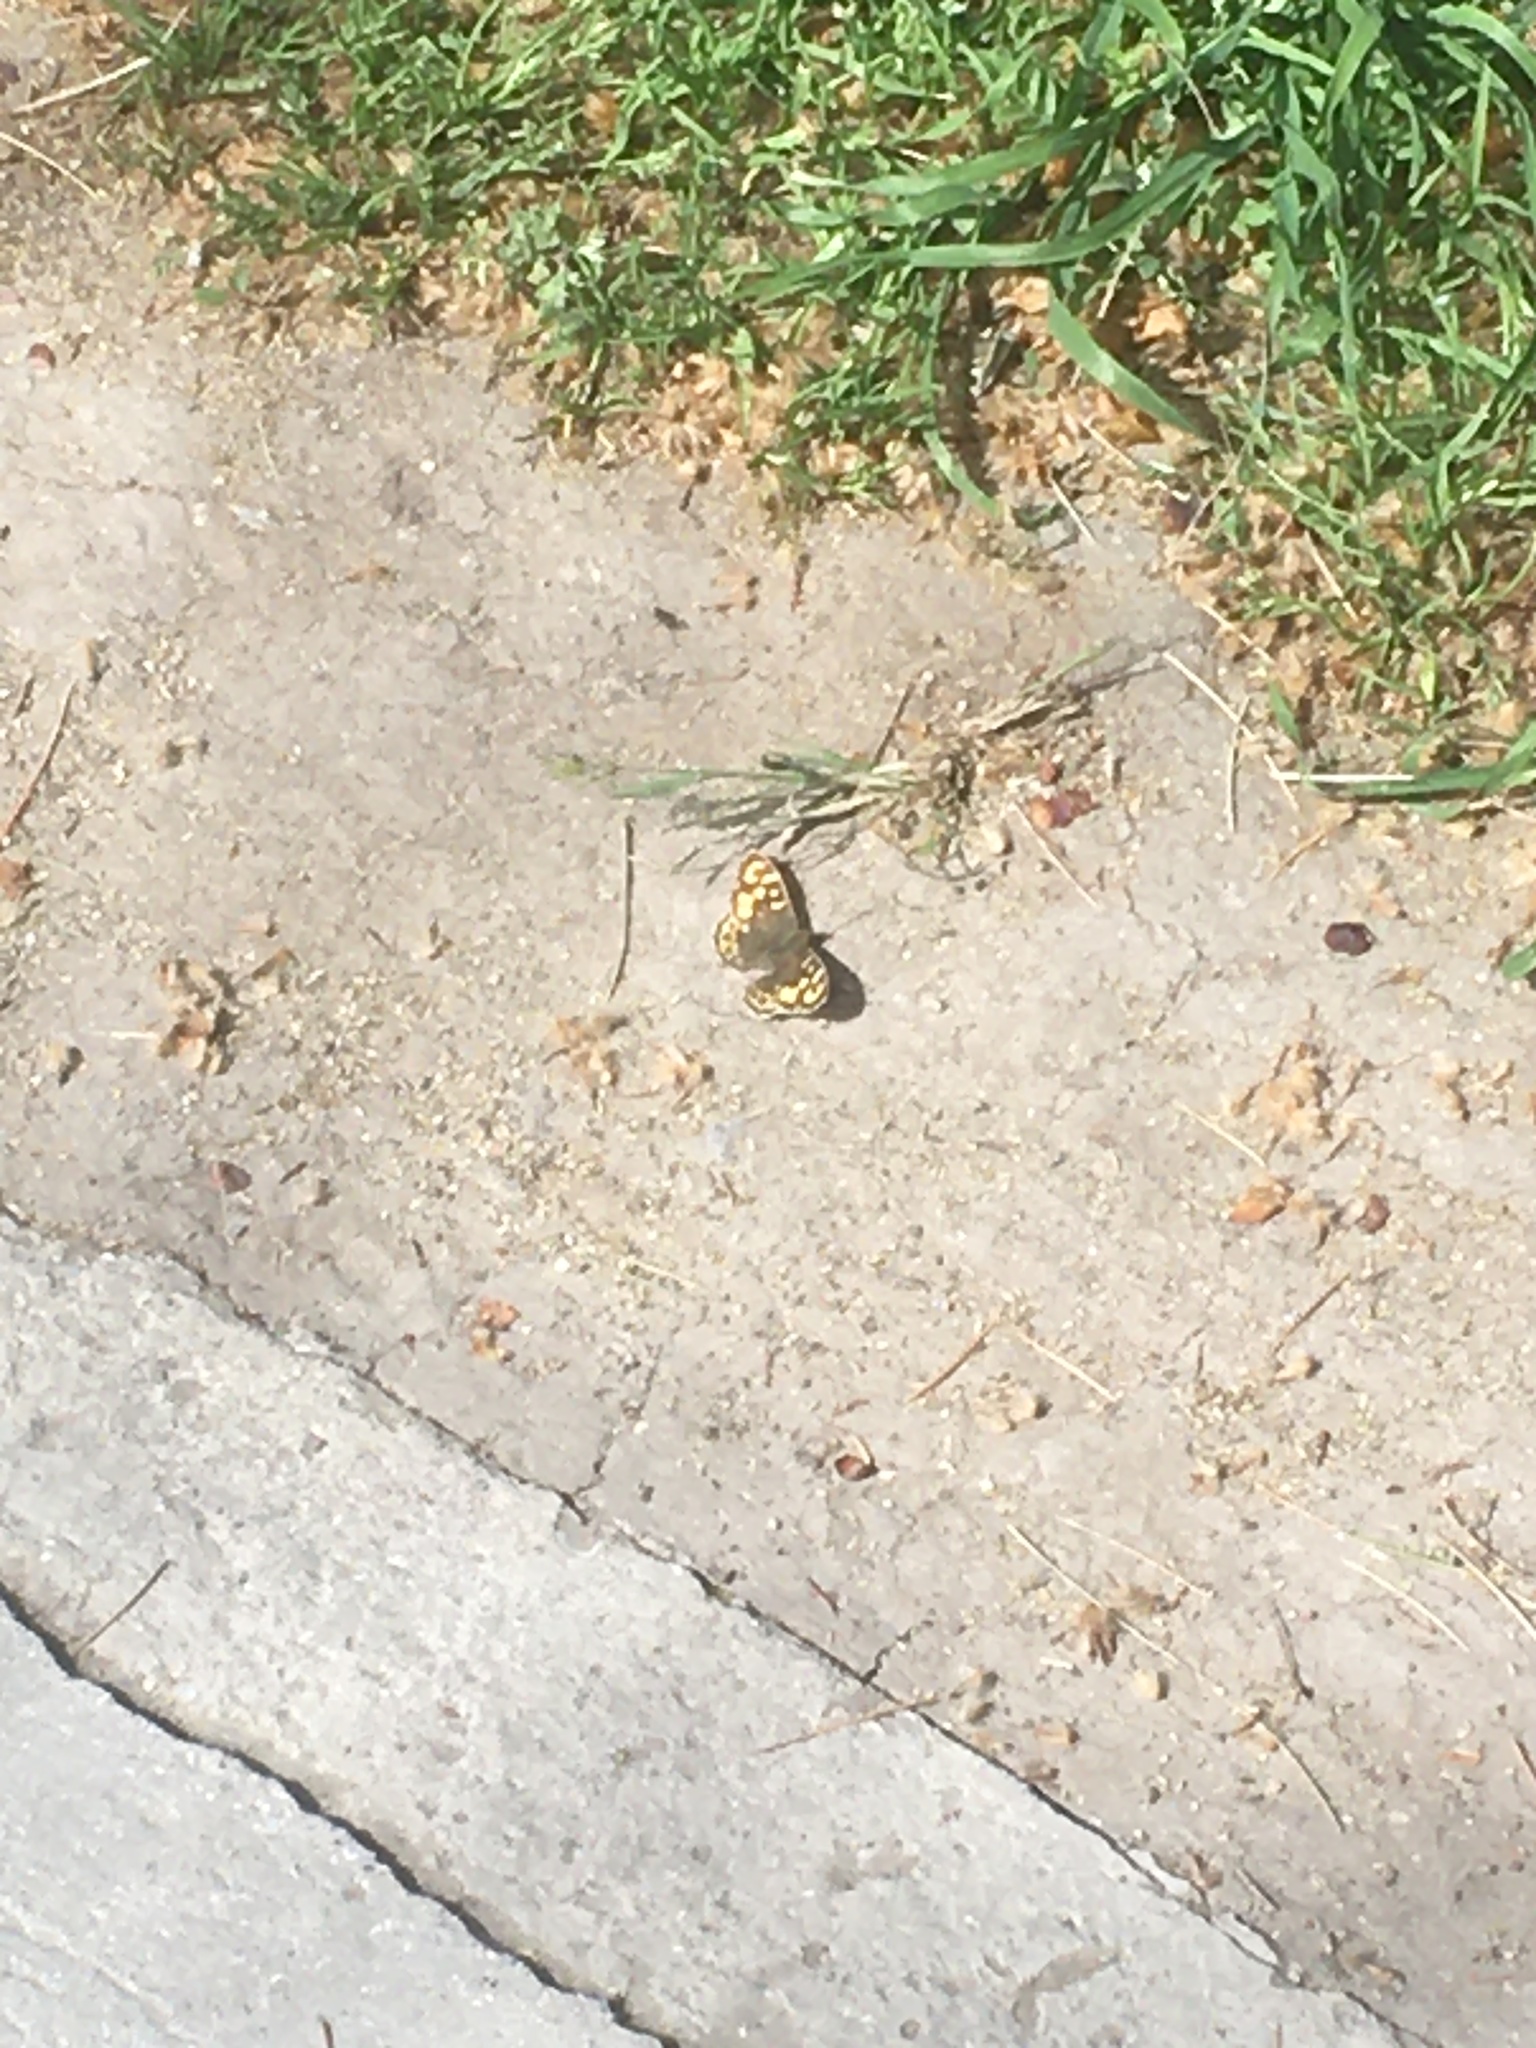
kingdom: Animalia
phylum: Arthropoda
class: Insecta
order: Lepidoptera
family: Nymphalidae
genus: Pararge
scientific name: Pararge aegeria
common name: Speckled wood
